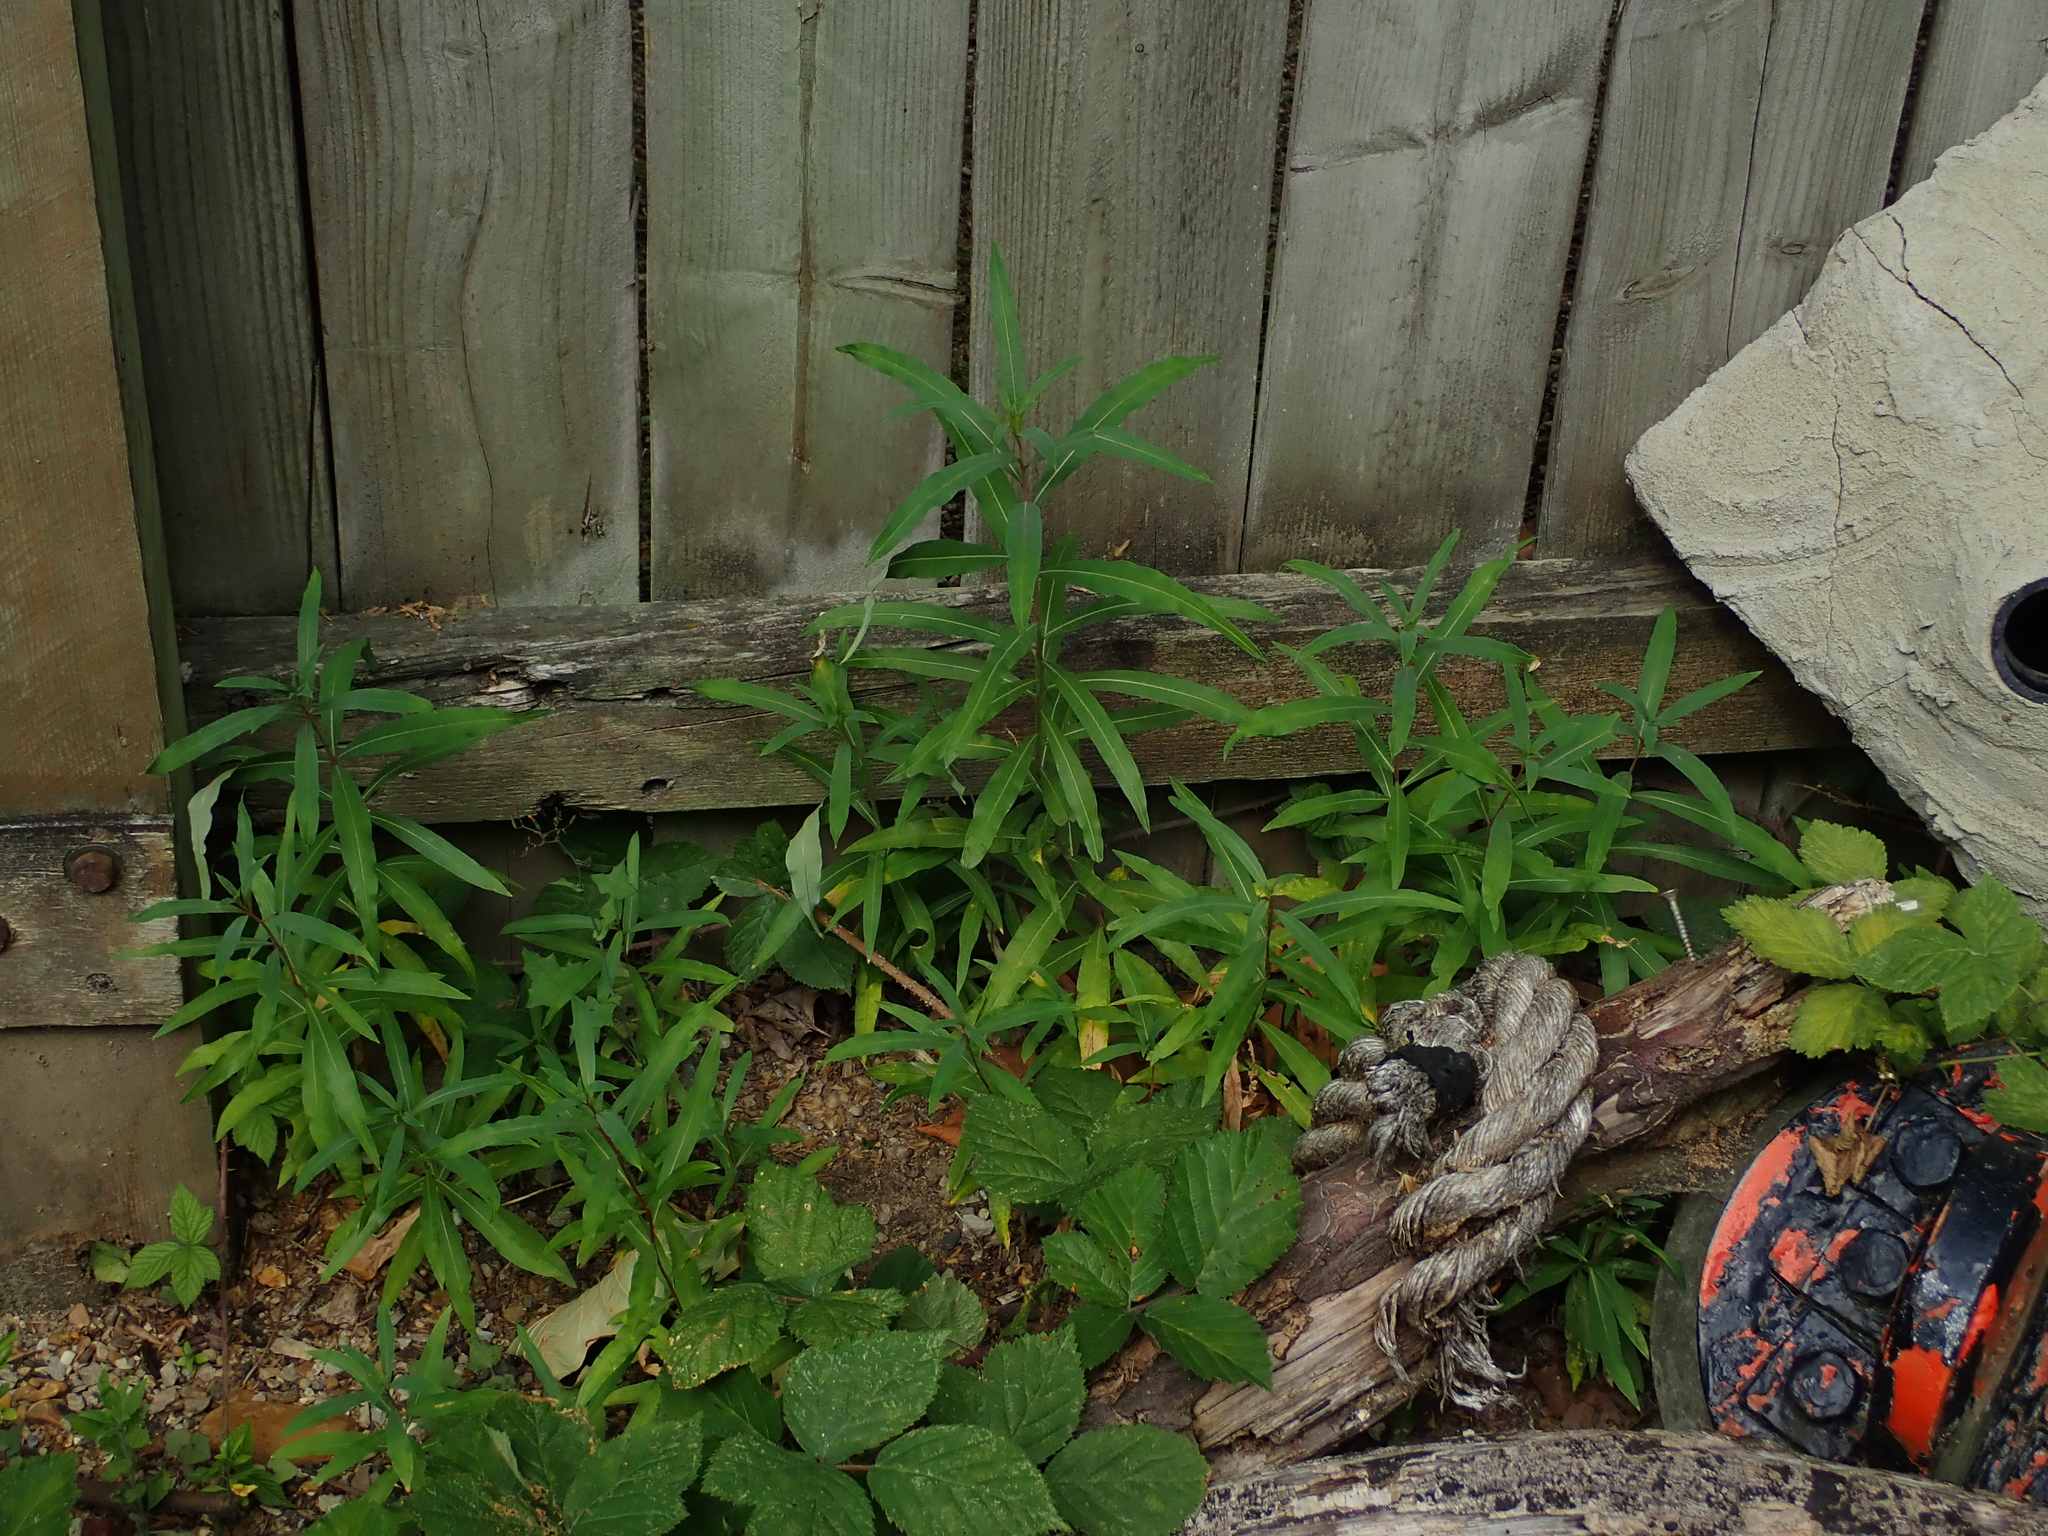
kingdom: Plantae
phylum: Tracheophyta
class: Magnoliopsida
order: Myrtales
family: Onagraceae
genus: Chamaenerion
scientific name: Chamaenerion angustifolium
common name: Fireweed
